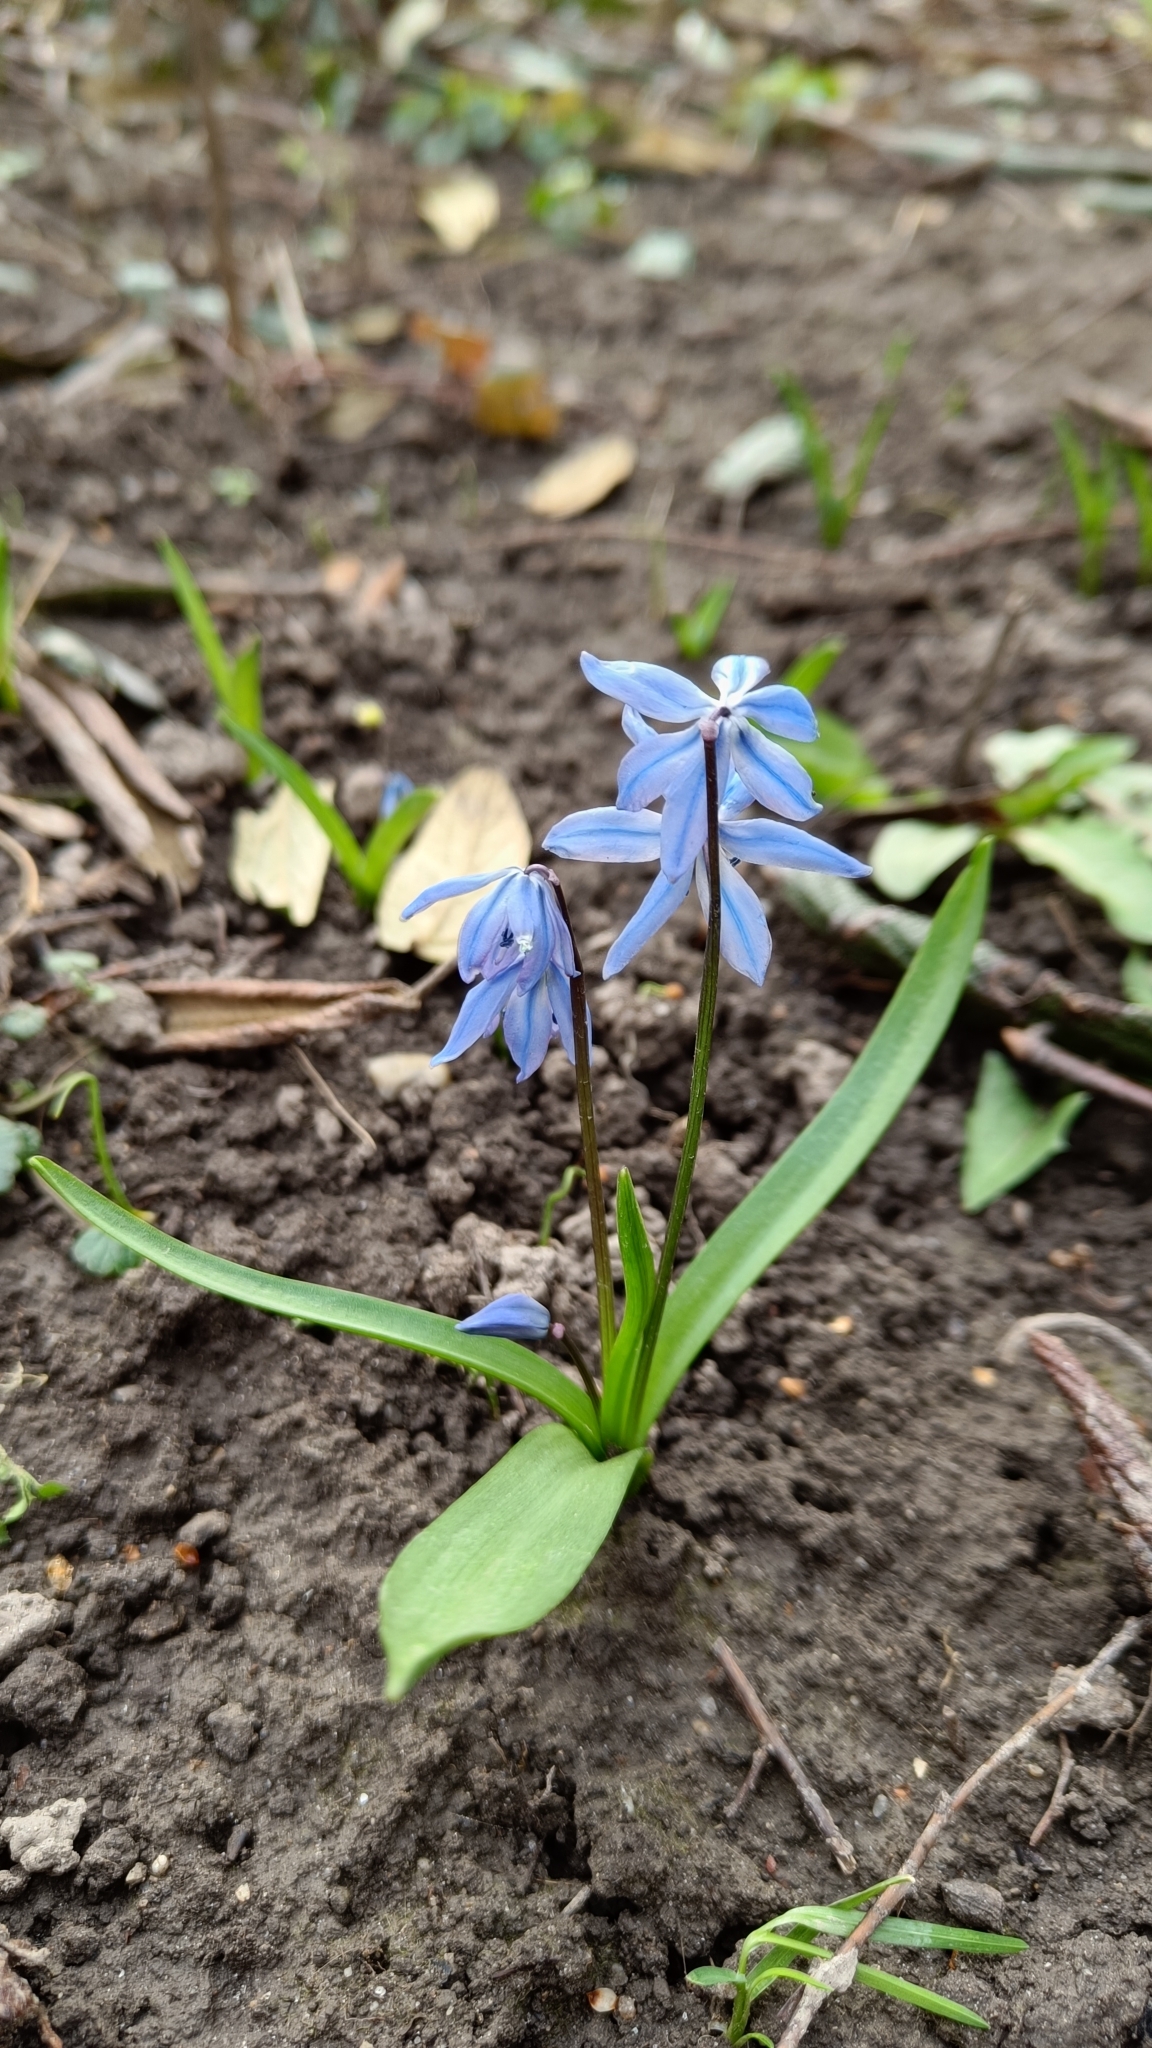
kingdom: Plantae
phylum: Tracheophyta
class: Liliopsida
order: Asparagales
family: Asparagaceae
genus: Scilla
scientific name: Scilla siberica
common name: Siberian squill
